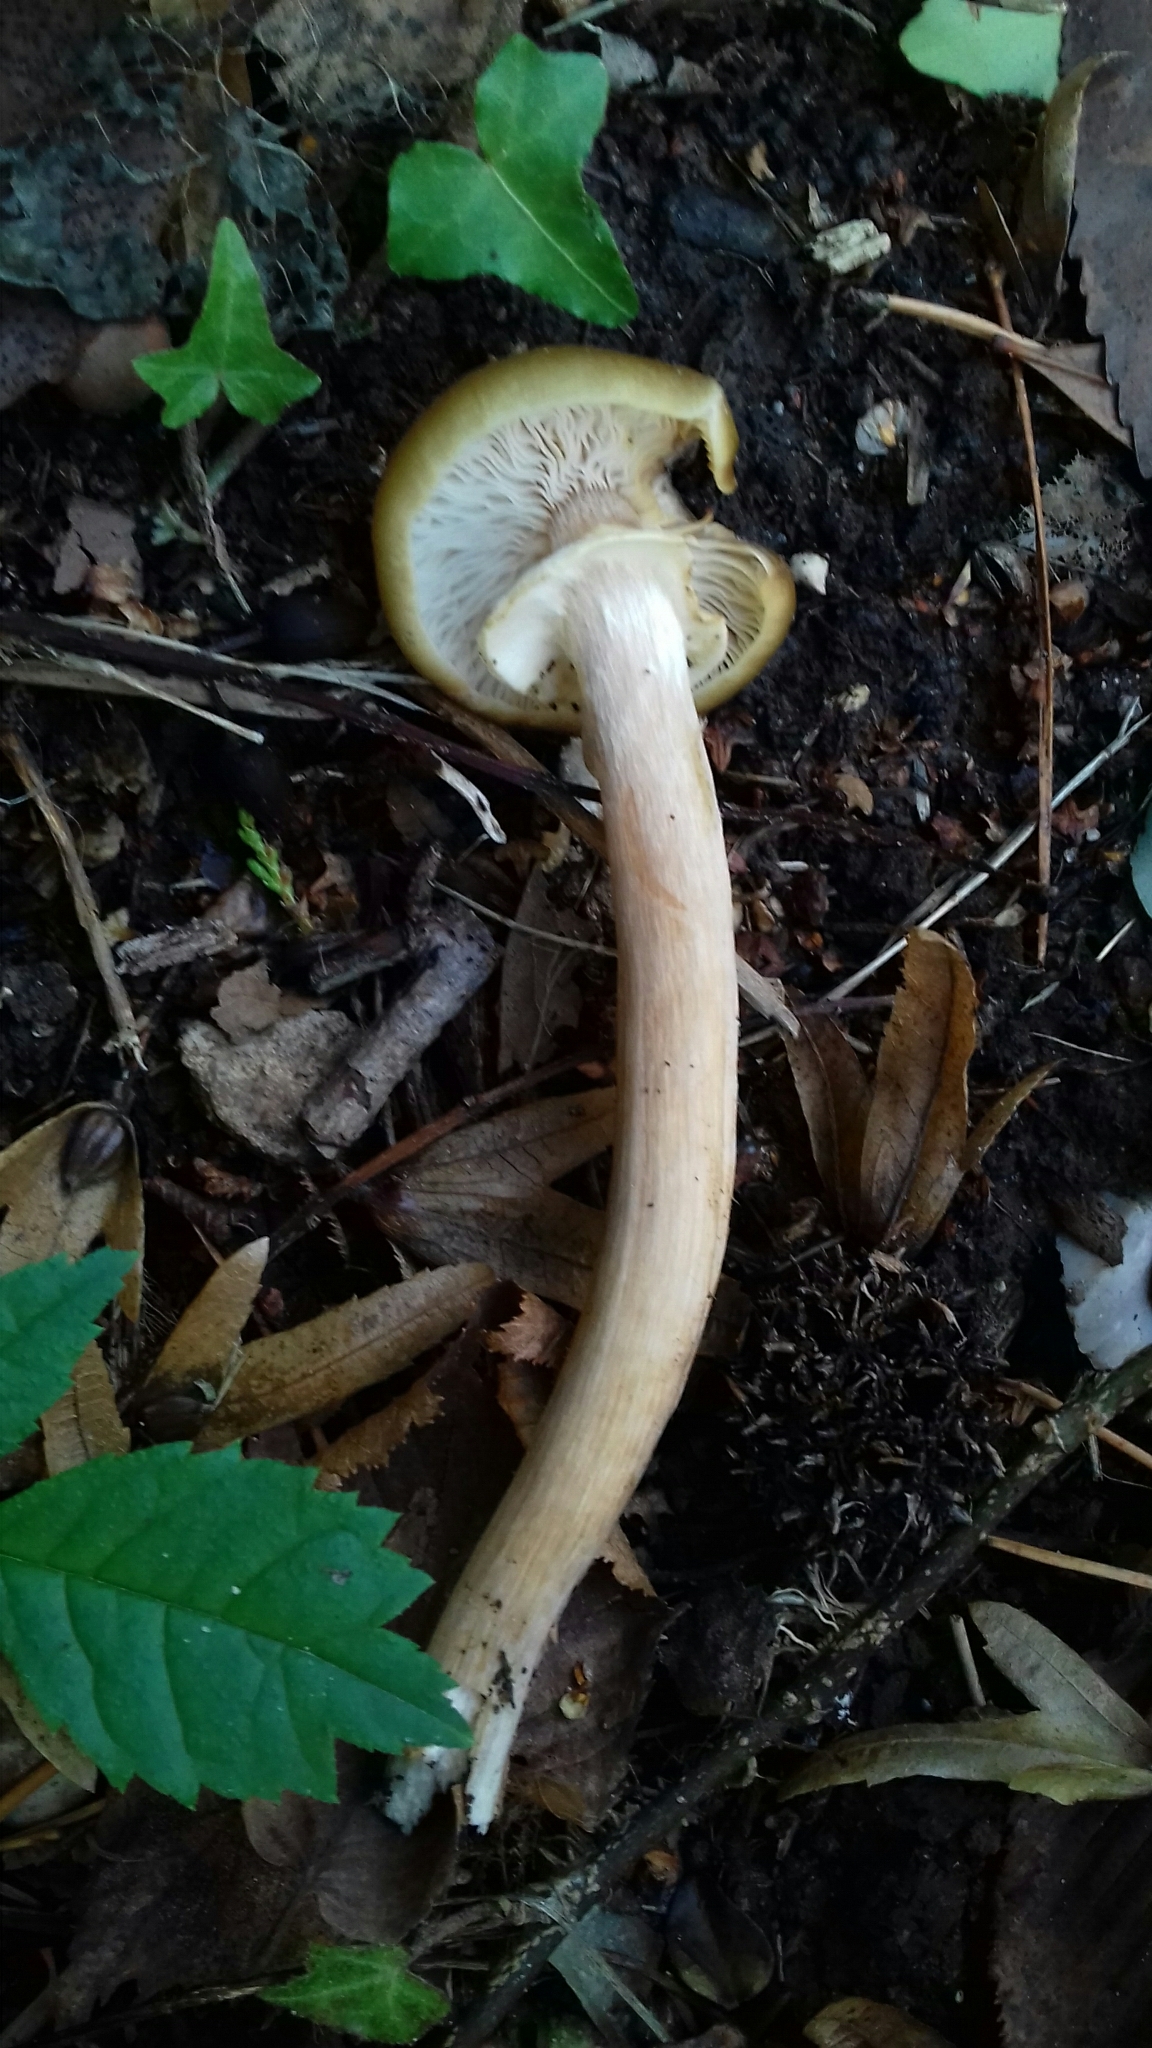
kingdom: Fungi
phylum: Basidiomycota
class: Agaricomycetes
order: Agaricales
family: Physalacriaceae
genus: Armillaria
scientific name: Armillaria mellea
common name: Honey fungus
